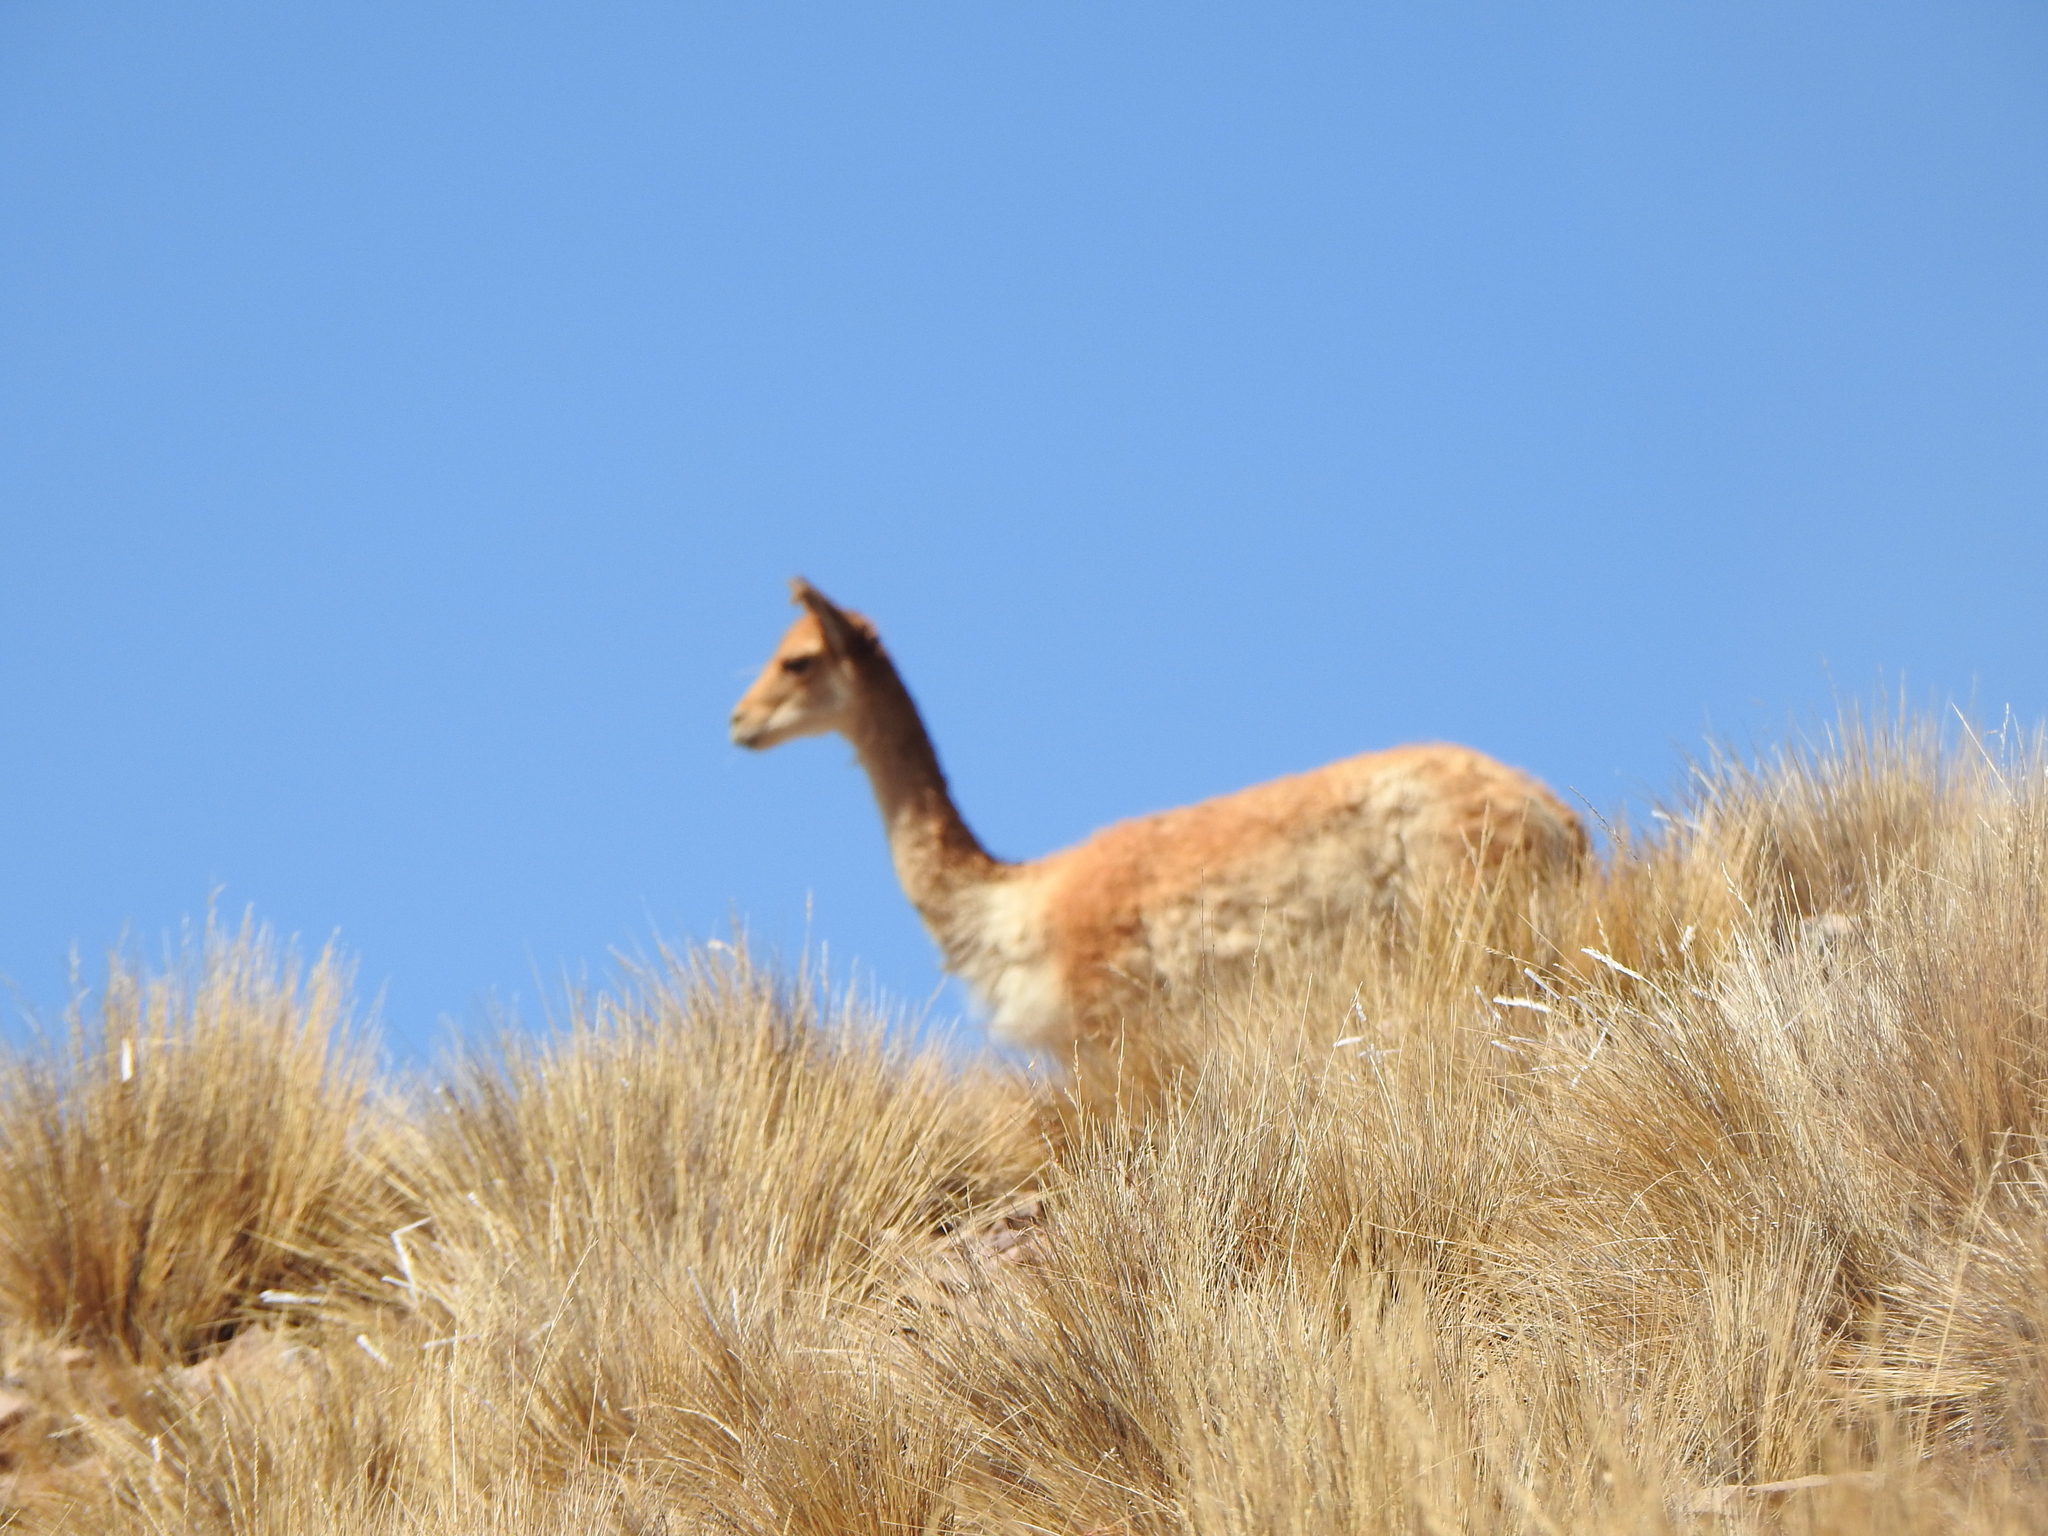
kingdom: Animalia
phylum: Chordata
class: Mammalia
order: Artiodactyla
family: Camelidae
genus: Vicugna
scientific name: Vicugna vicugna
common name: Vicugna
